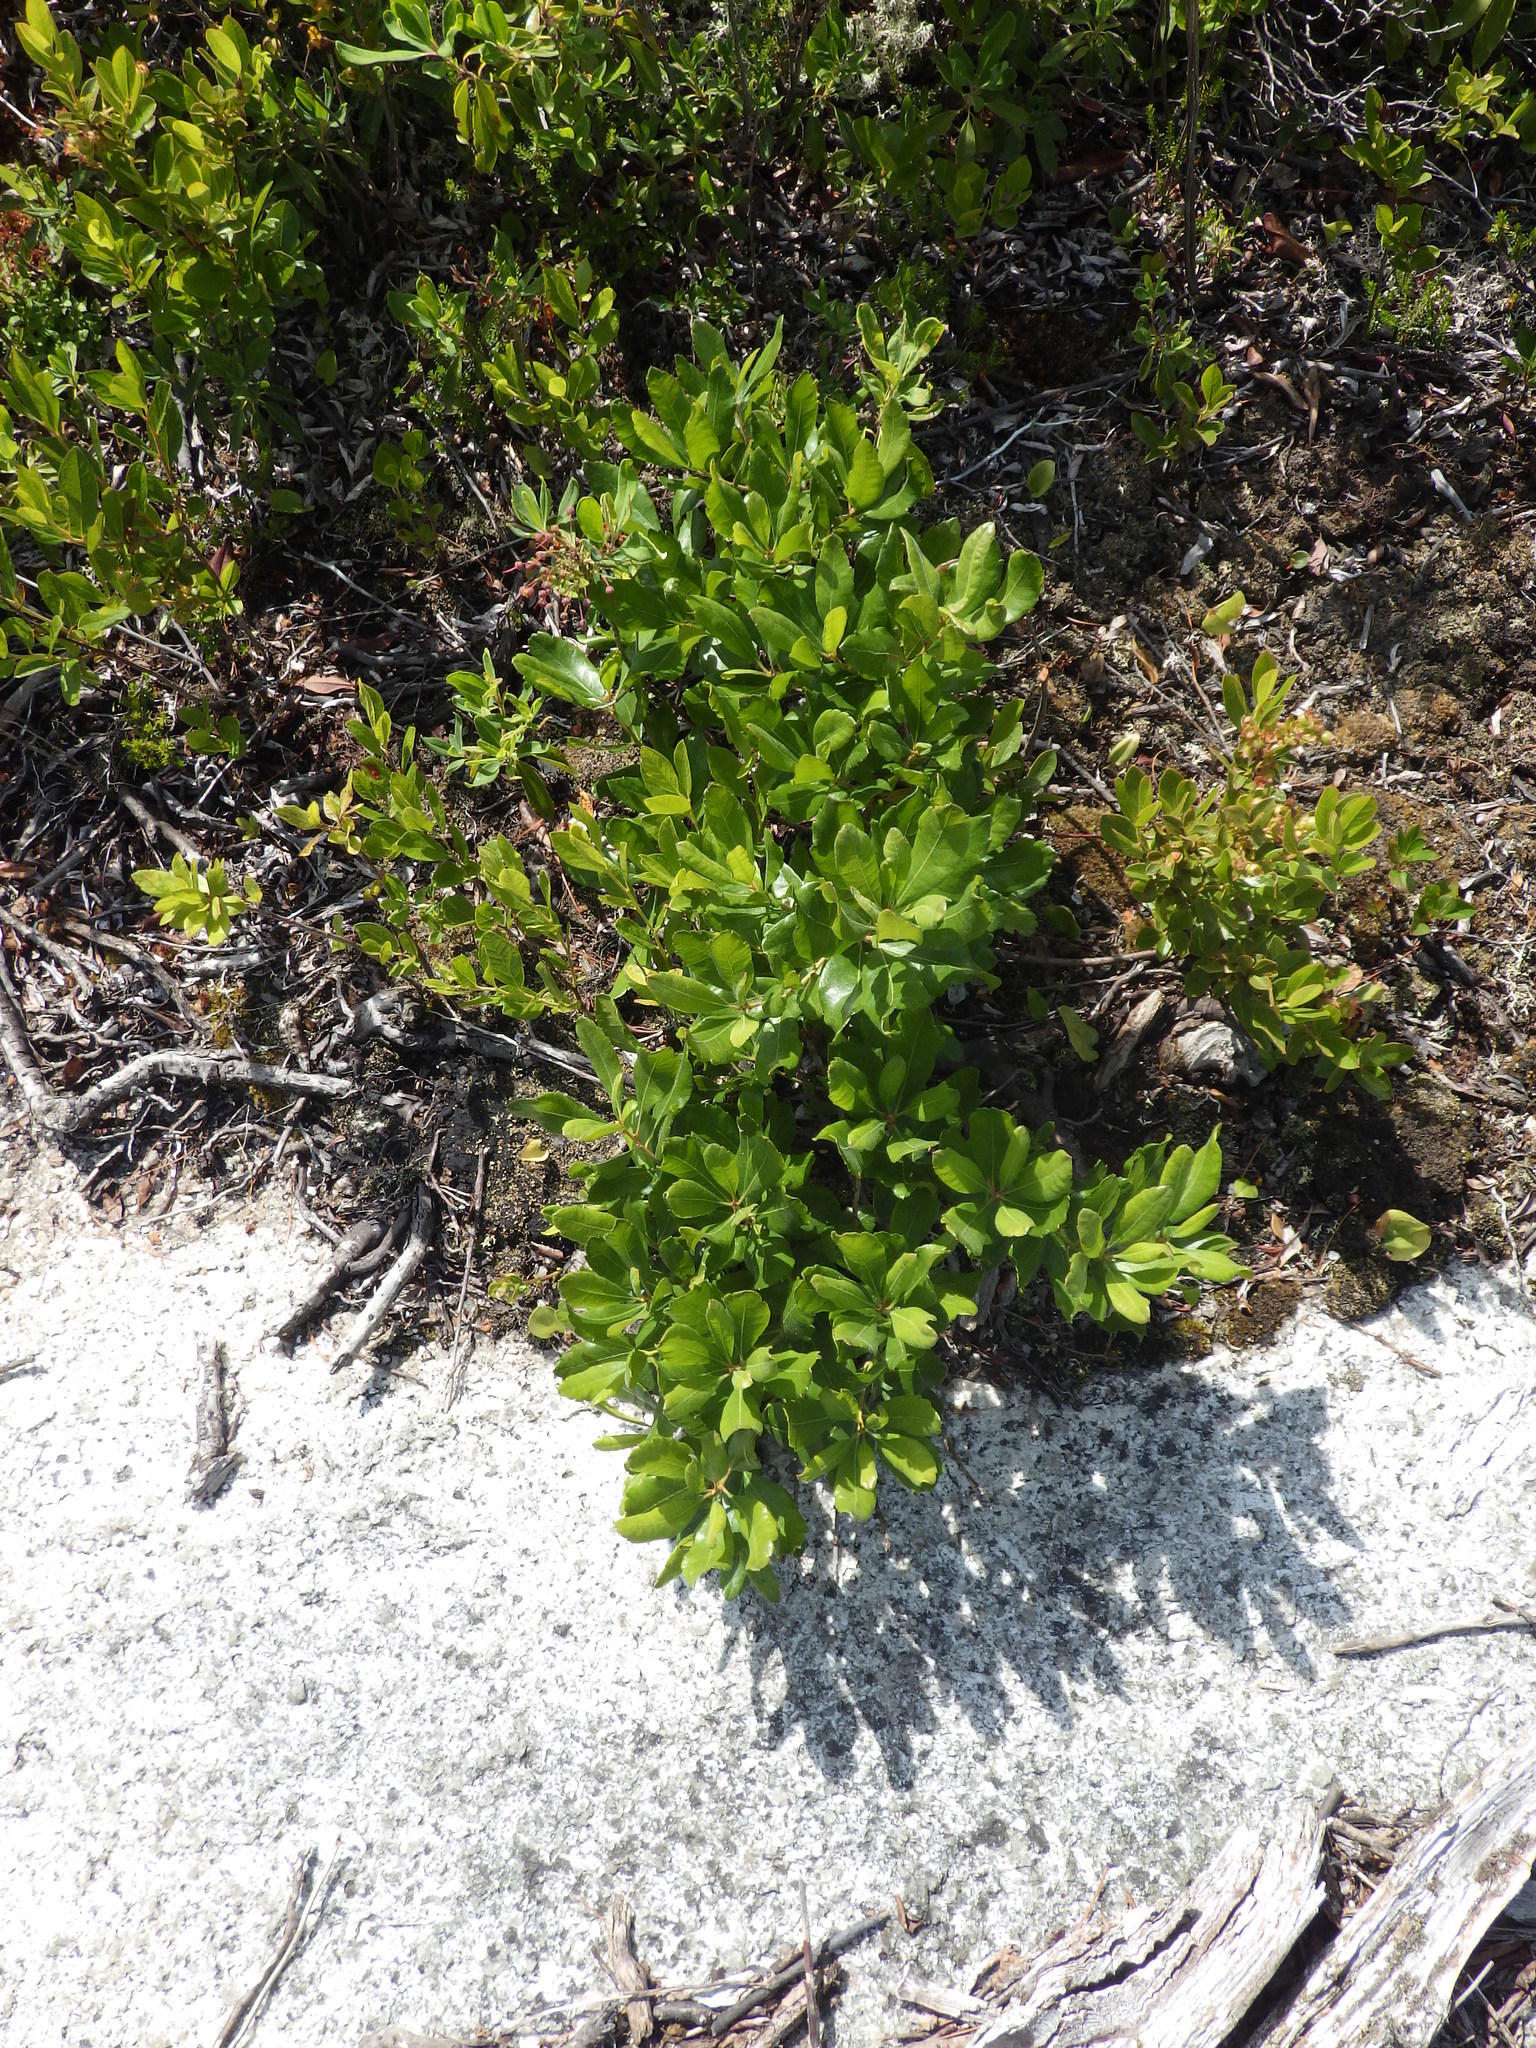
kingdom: Plantae
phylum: Tracheophyta
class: Magnoliopsida
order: Fagales
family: Myricaceae
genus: Morella
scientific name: Morella pensylvanica
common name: Northern bayberry
